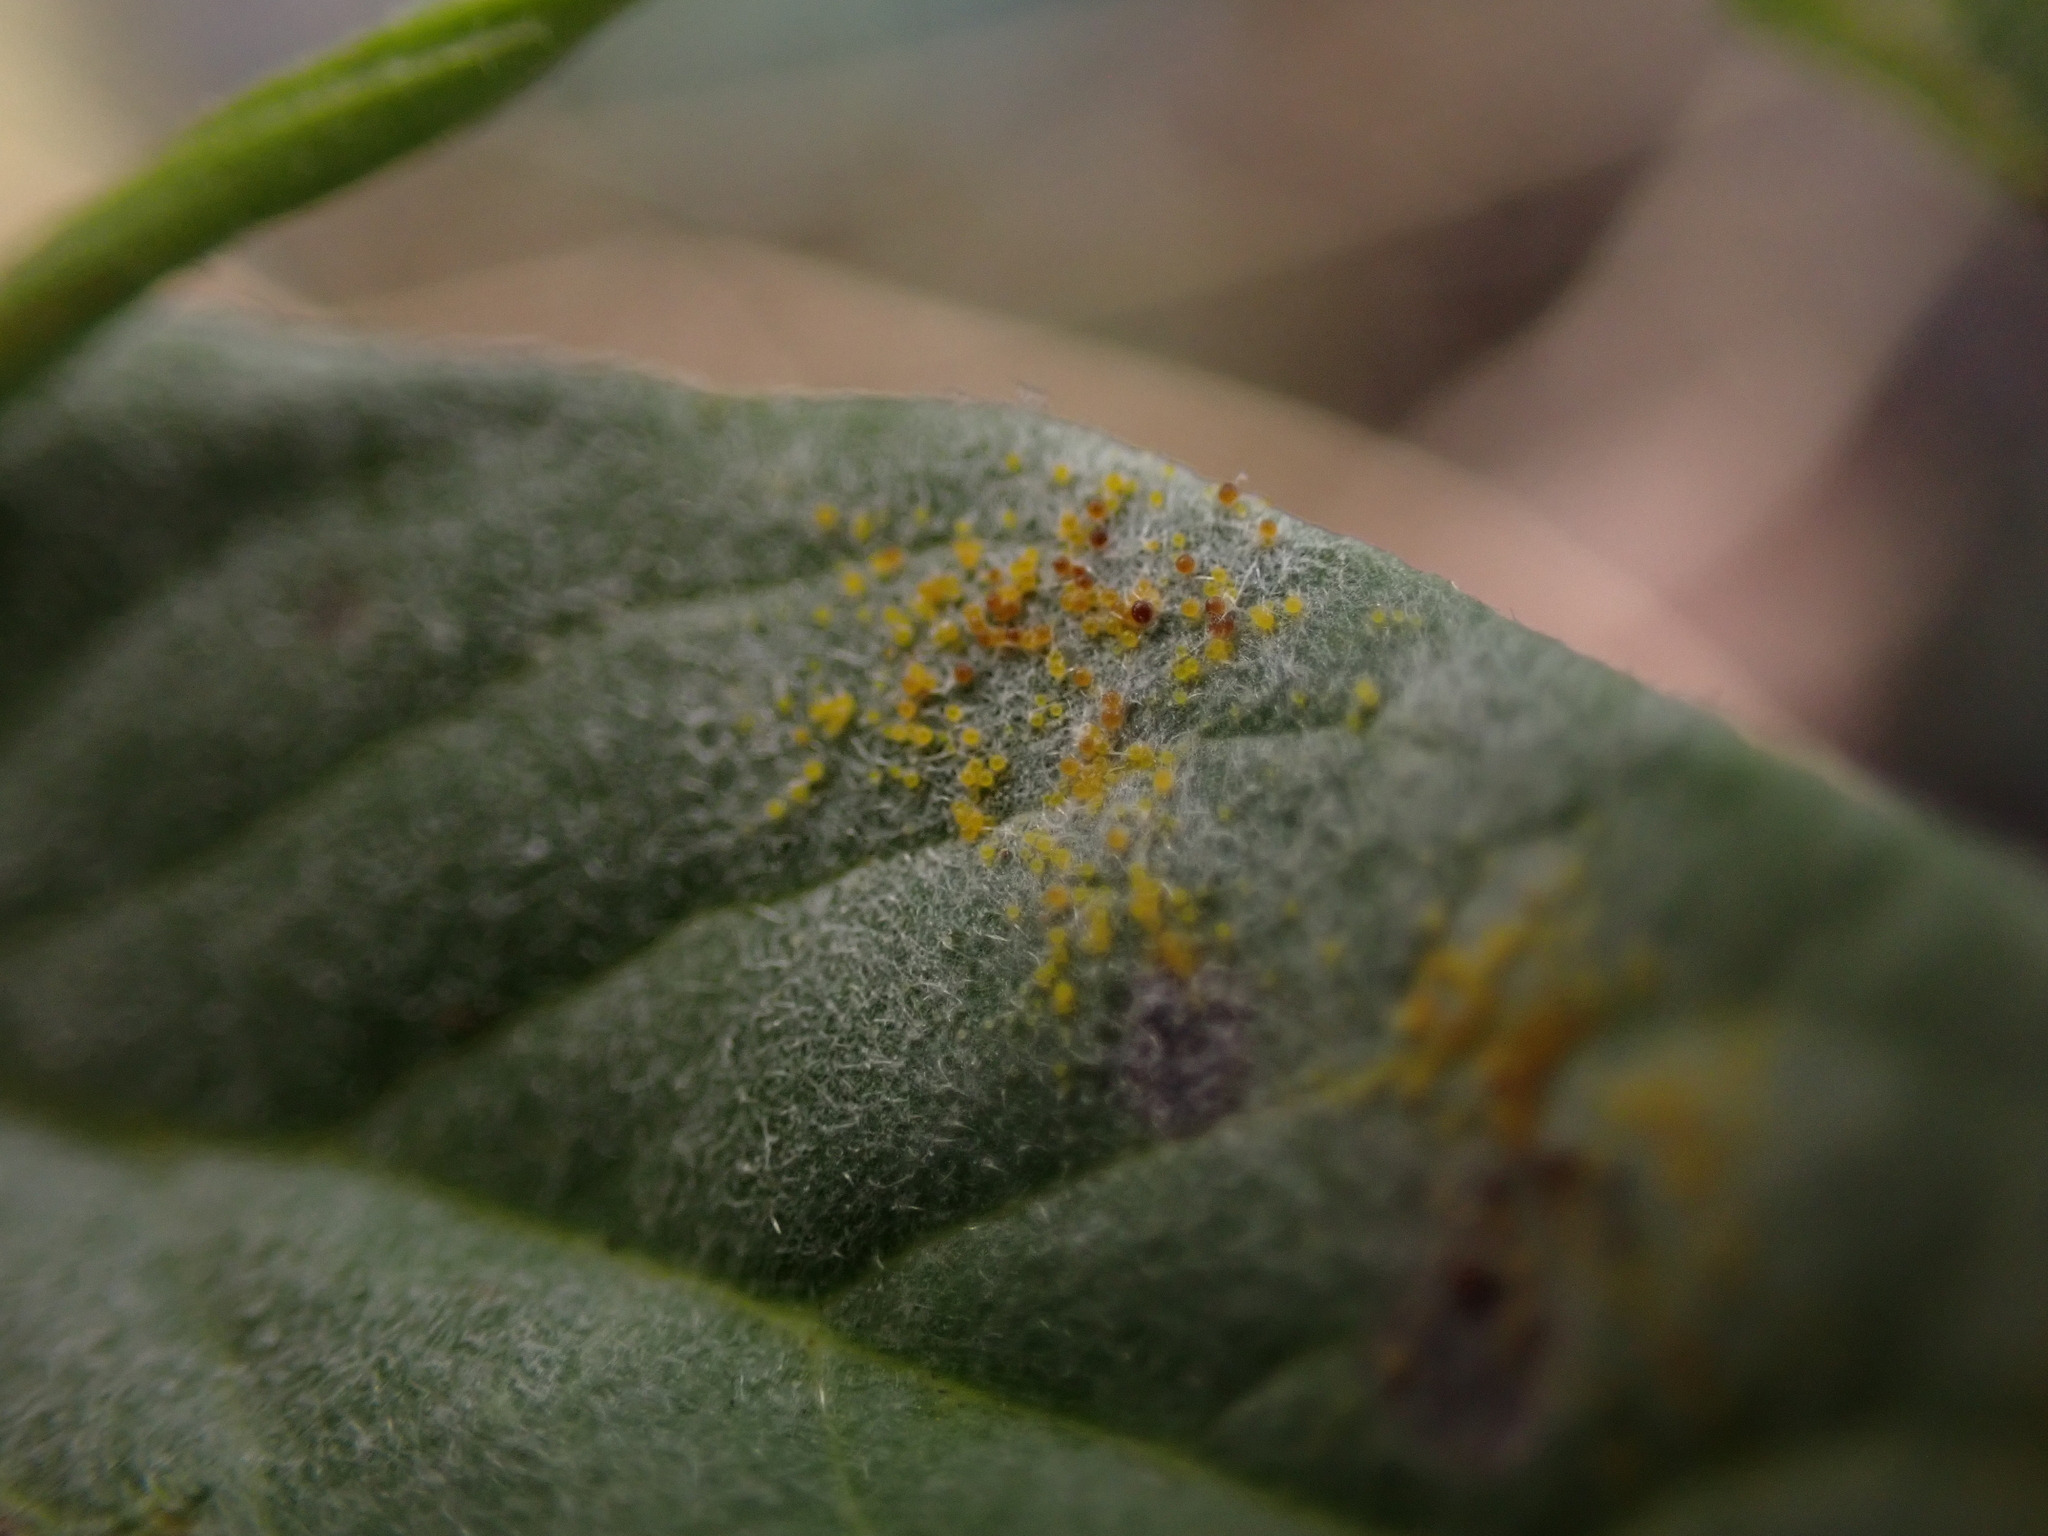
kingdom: Fungi
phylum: Ascomycota
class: Leotiomycetes
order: Helotiales
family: Erysiphaceae
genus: Erysiphe
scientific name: Erysiphe convolvuli
